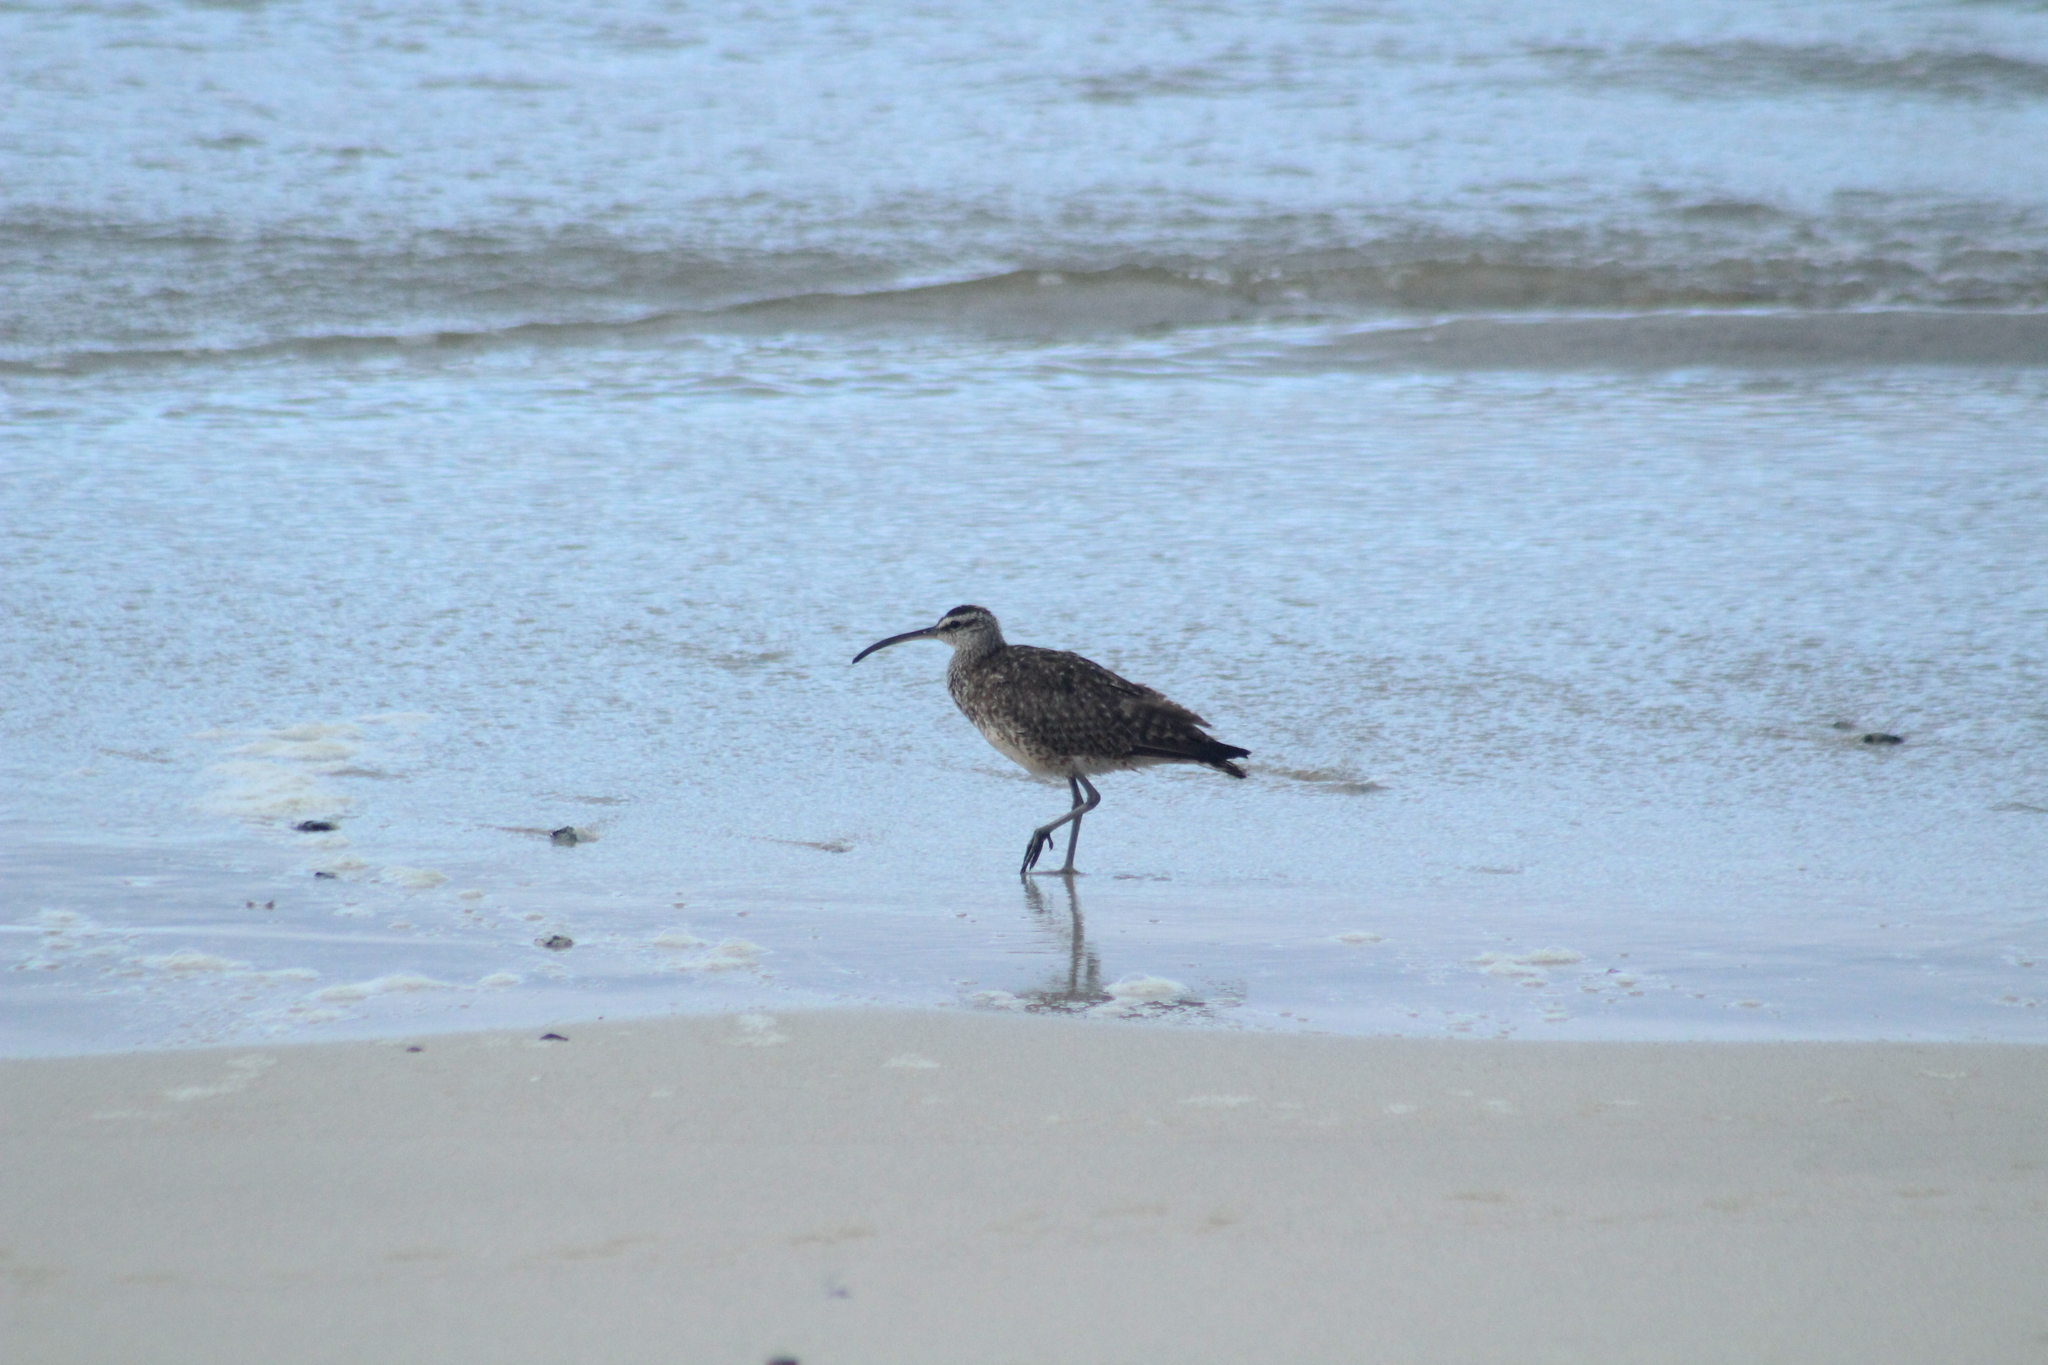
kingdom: Animalia
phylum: Chordata
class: Aves
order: Charadriiformes
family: Scolopacidae
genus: Numenius
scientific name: Numenius phaeopus
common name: Whimbrel
